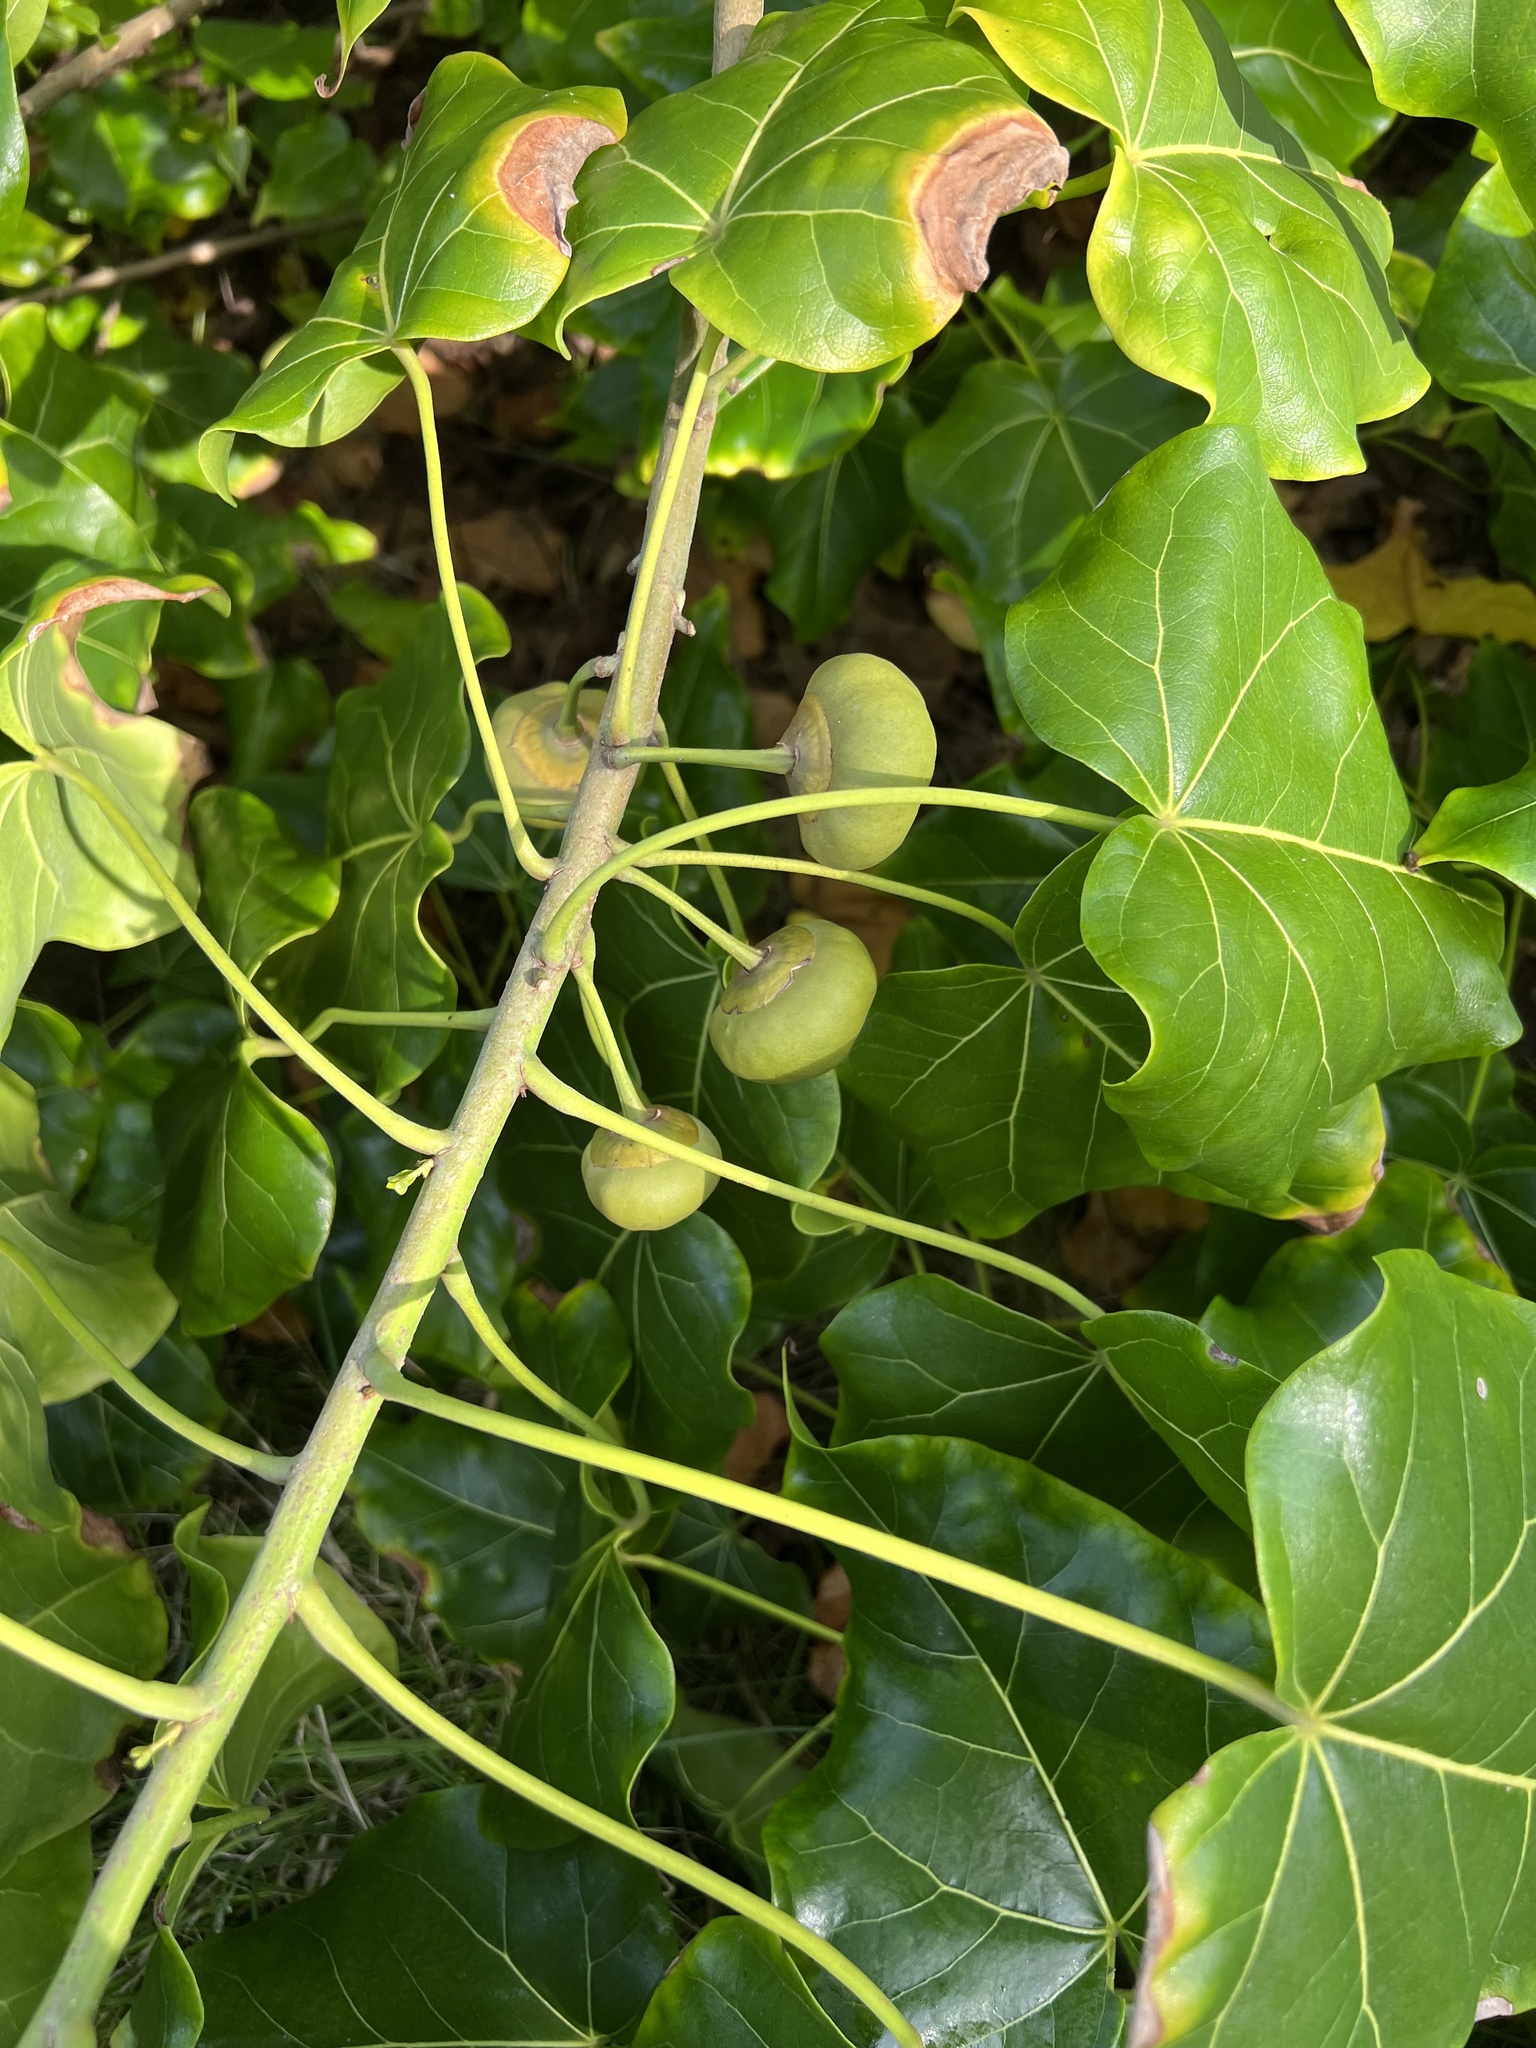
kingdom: Plantae
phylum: Tracheophyta
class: Magnoliopsida
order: Malvales
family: Malvaceae
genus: Thespesia
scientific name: Thespesia populnea
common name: Seaside mahoe
